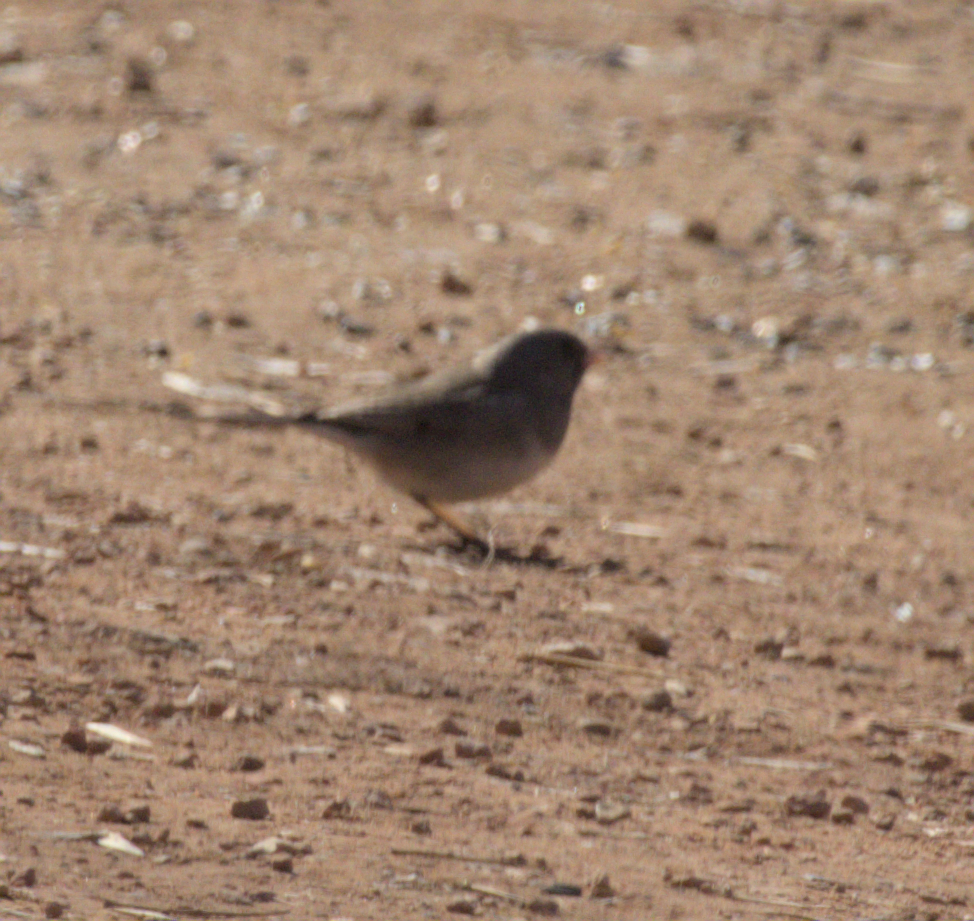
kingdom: Animalia
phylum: Chordata
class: Aves
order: Passeriformes
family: Passerellidae
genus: Junco
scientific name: Junco hyemalis
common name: Dark-eyed junco
